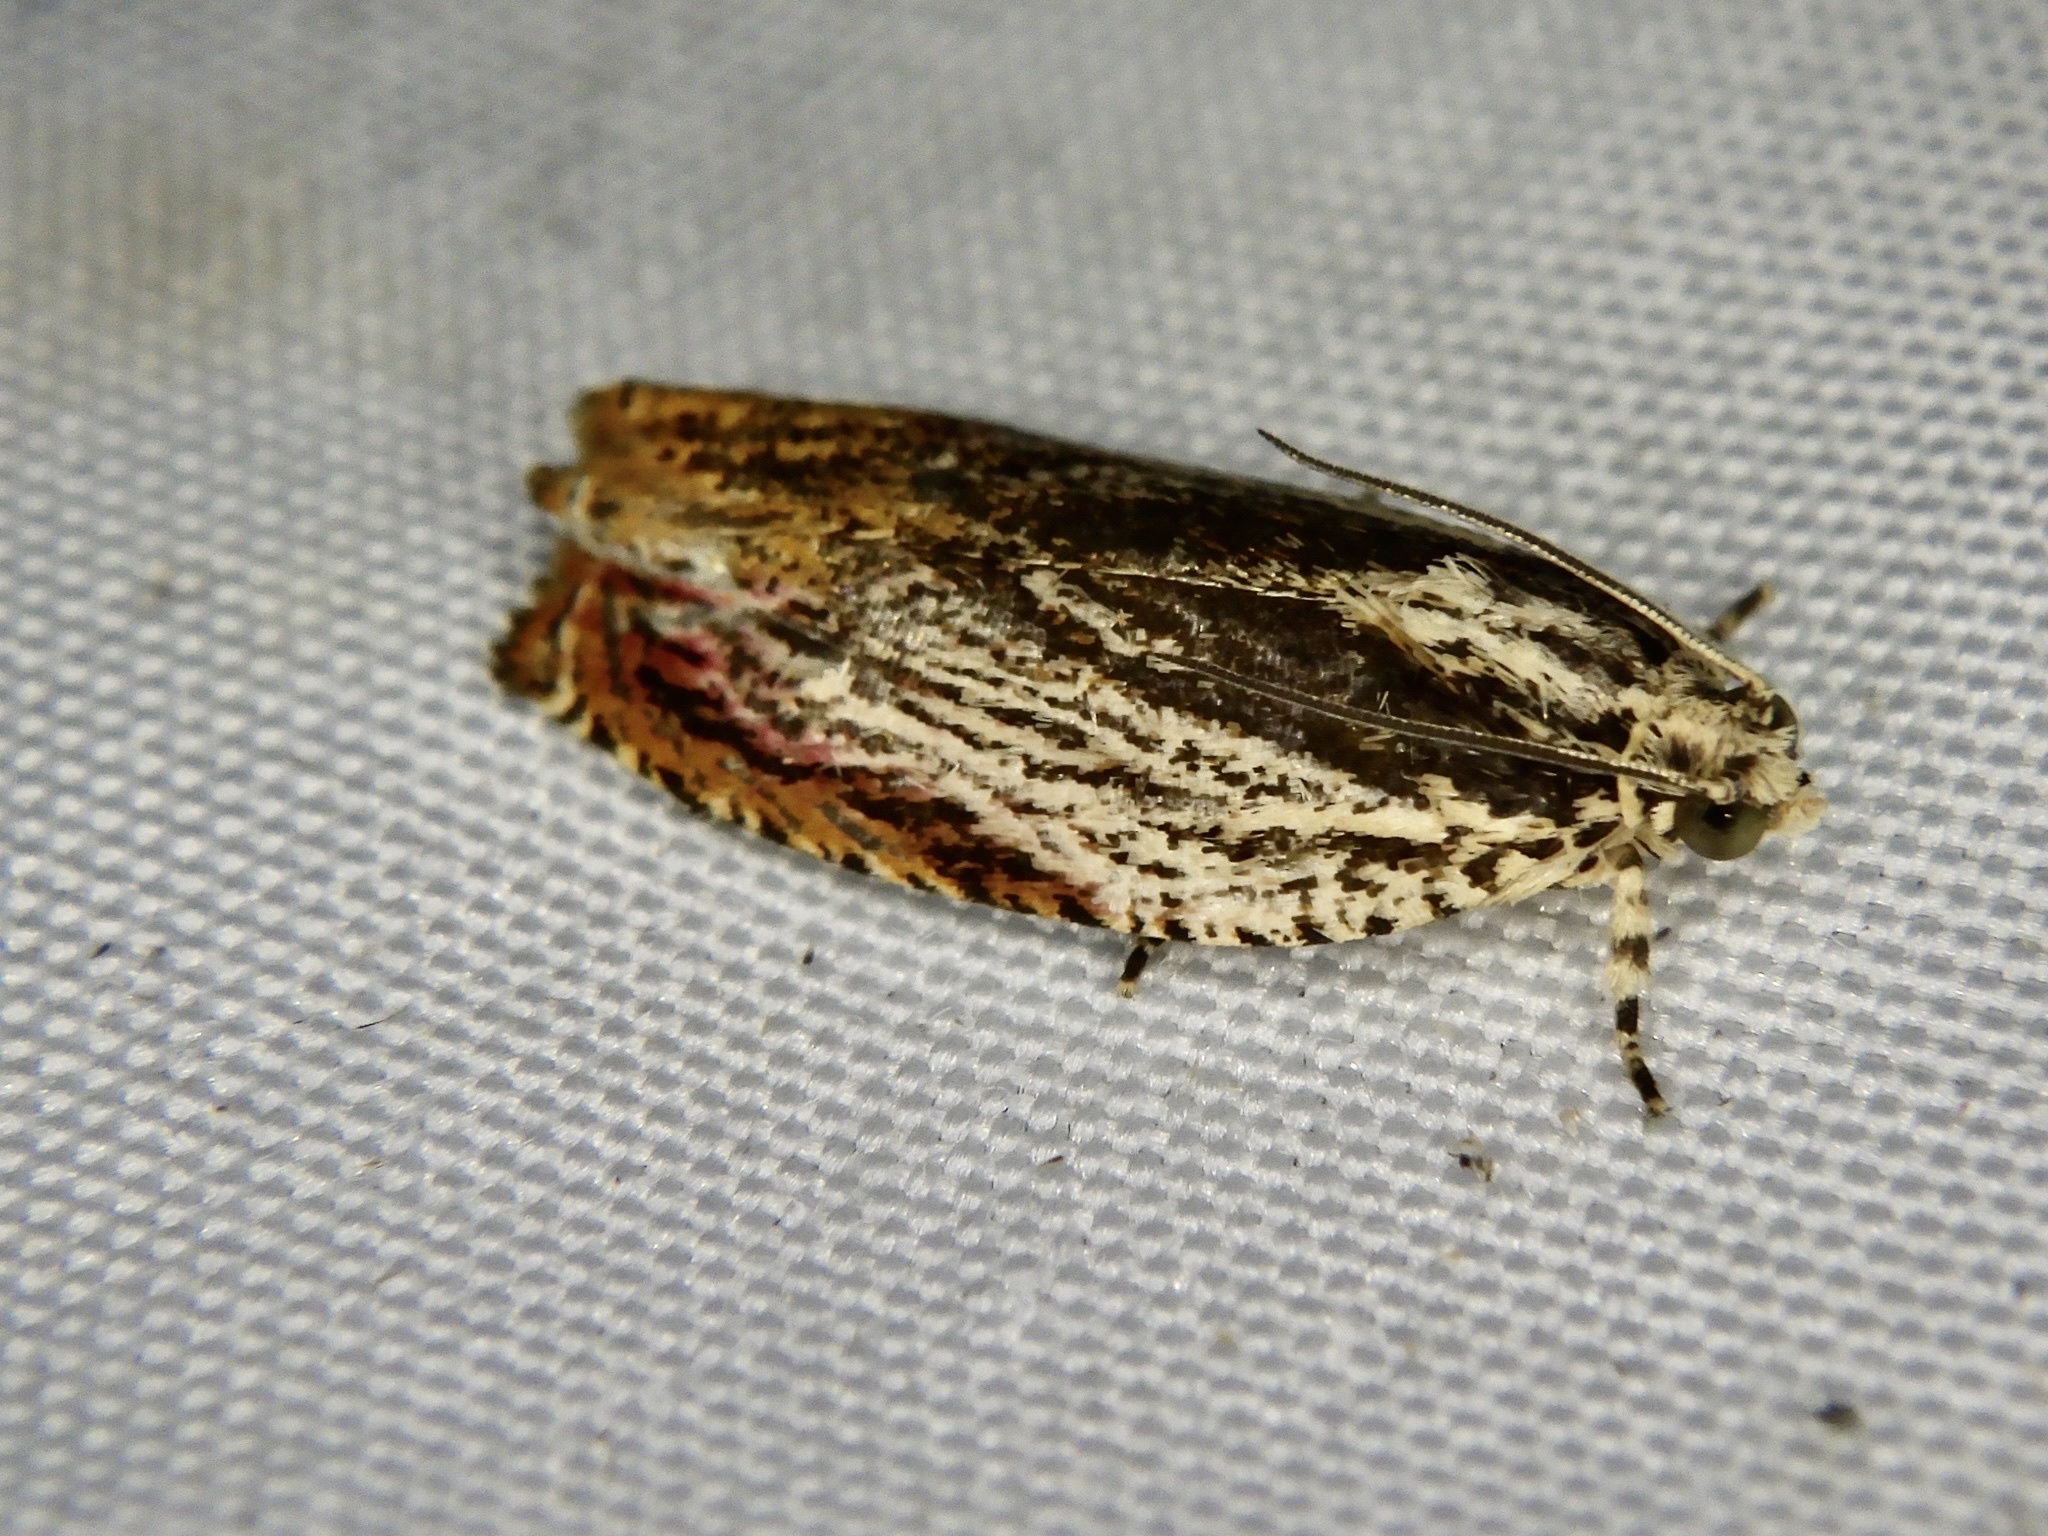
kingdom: Animalia
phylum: Arthropoda
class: Insecta
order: Lepidoptera
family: Tortricidae
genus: Phaecasiophora
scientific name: Phaecasiophora roseana
